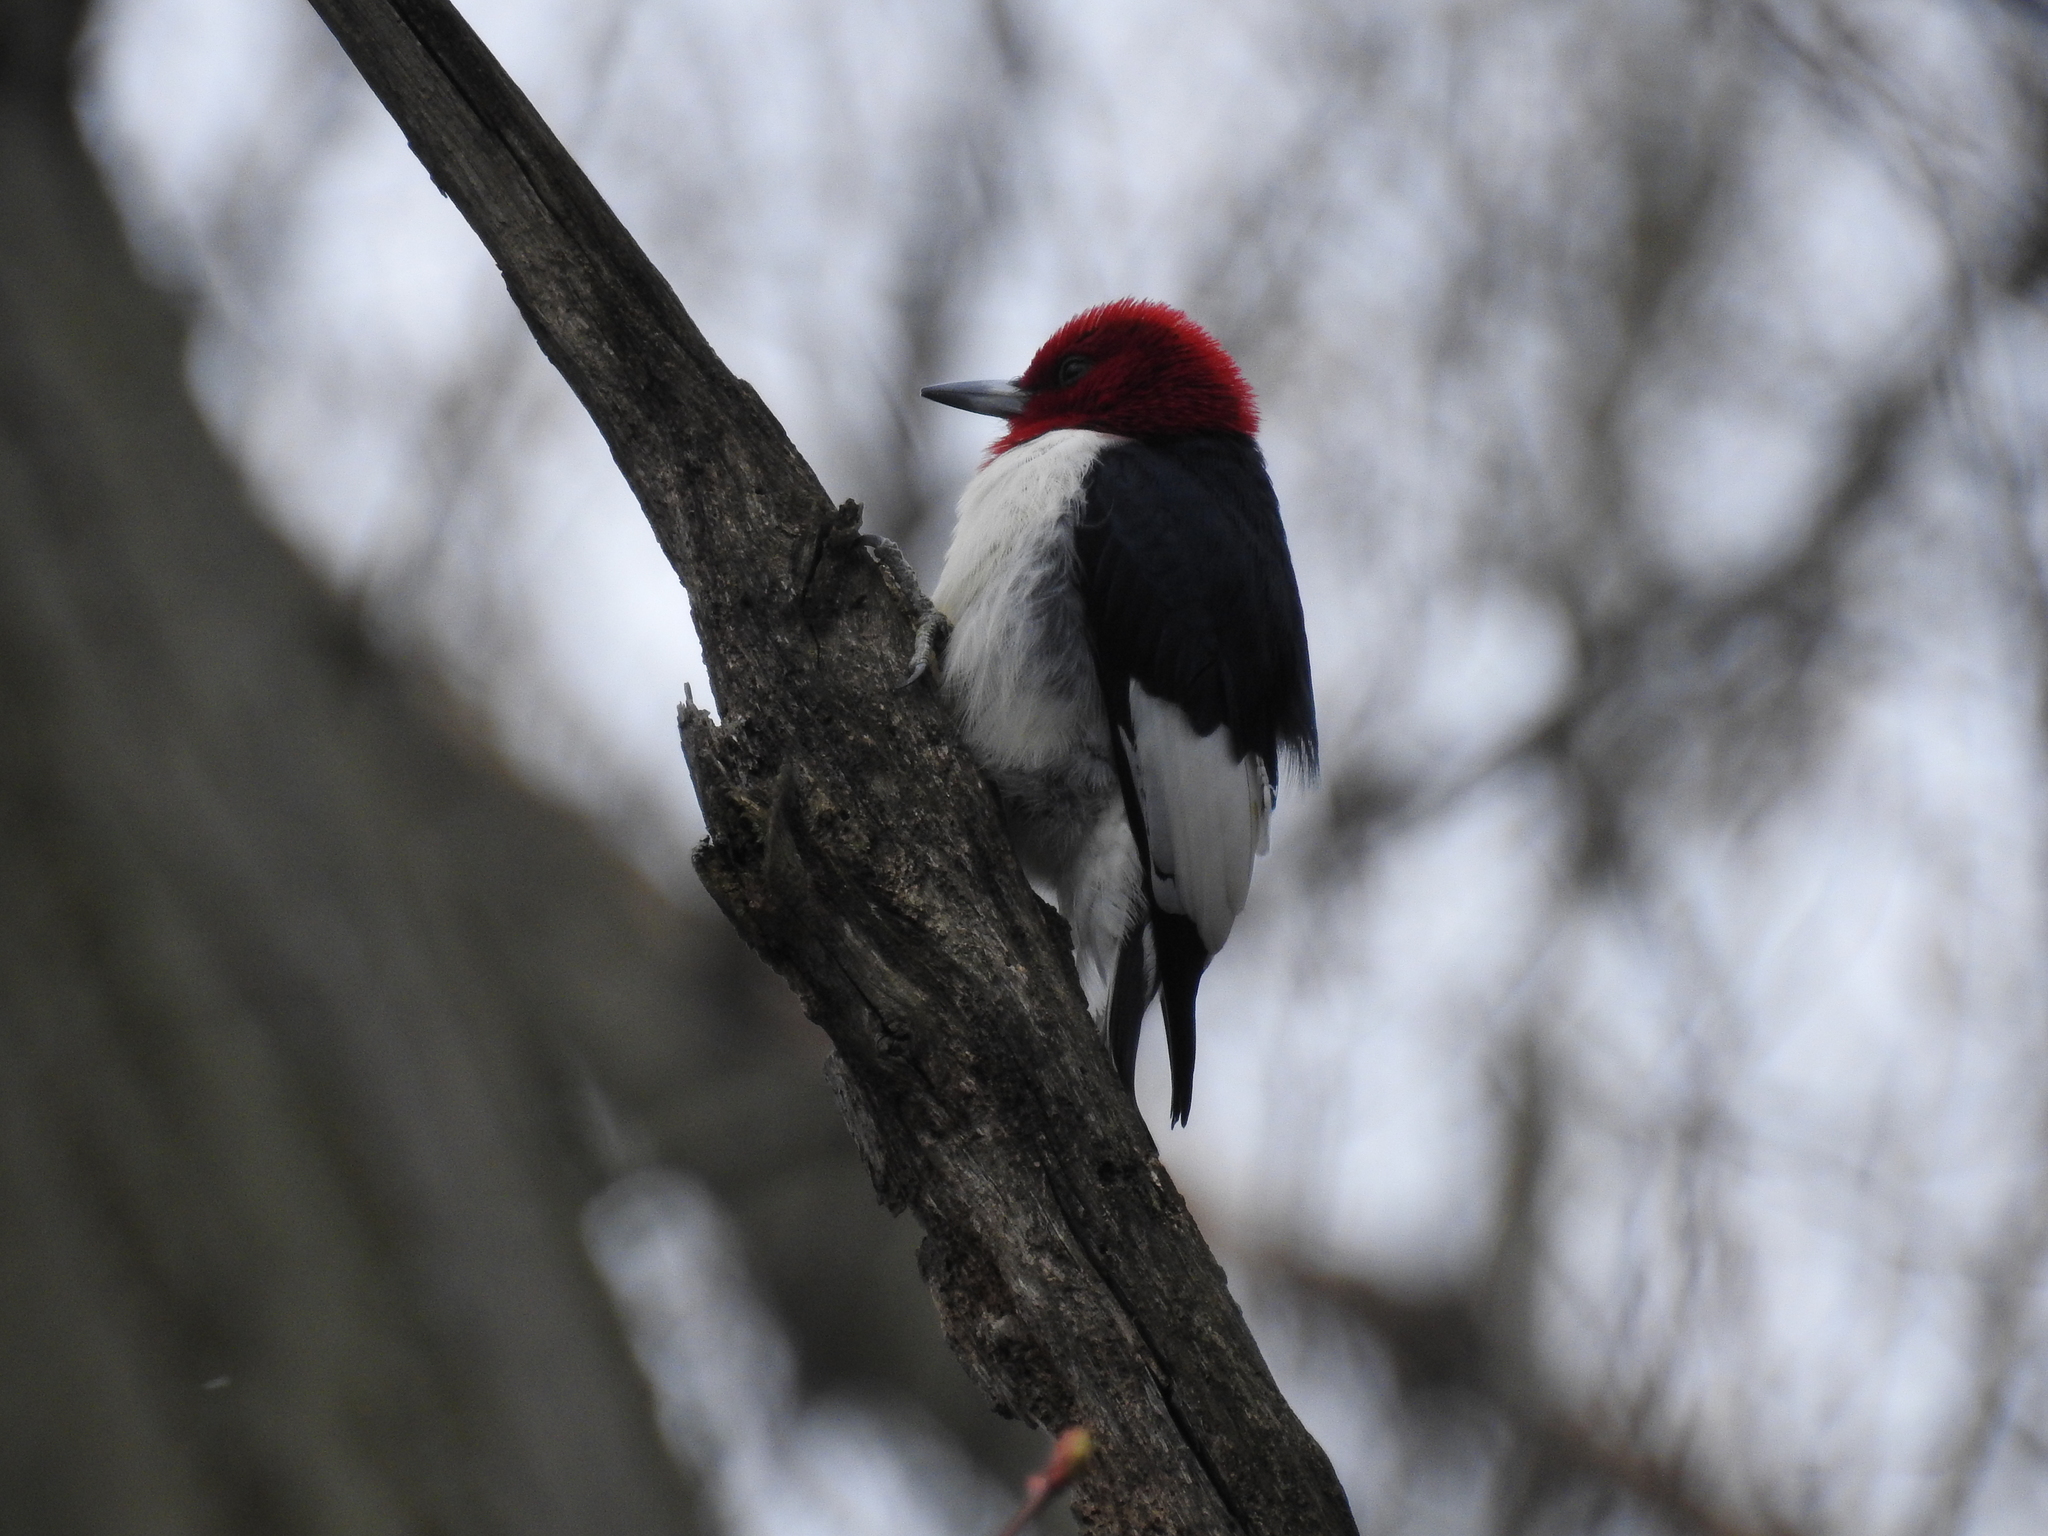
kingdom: Animalia
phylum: Chordata
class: Aves
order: Piciformes
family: Picidae
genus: Melanerpes
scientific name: Melanerpes erythrocephalus
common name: Red-headed woodpecker
